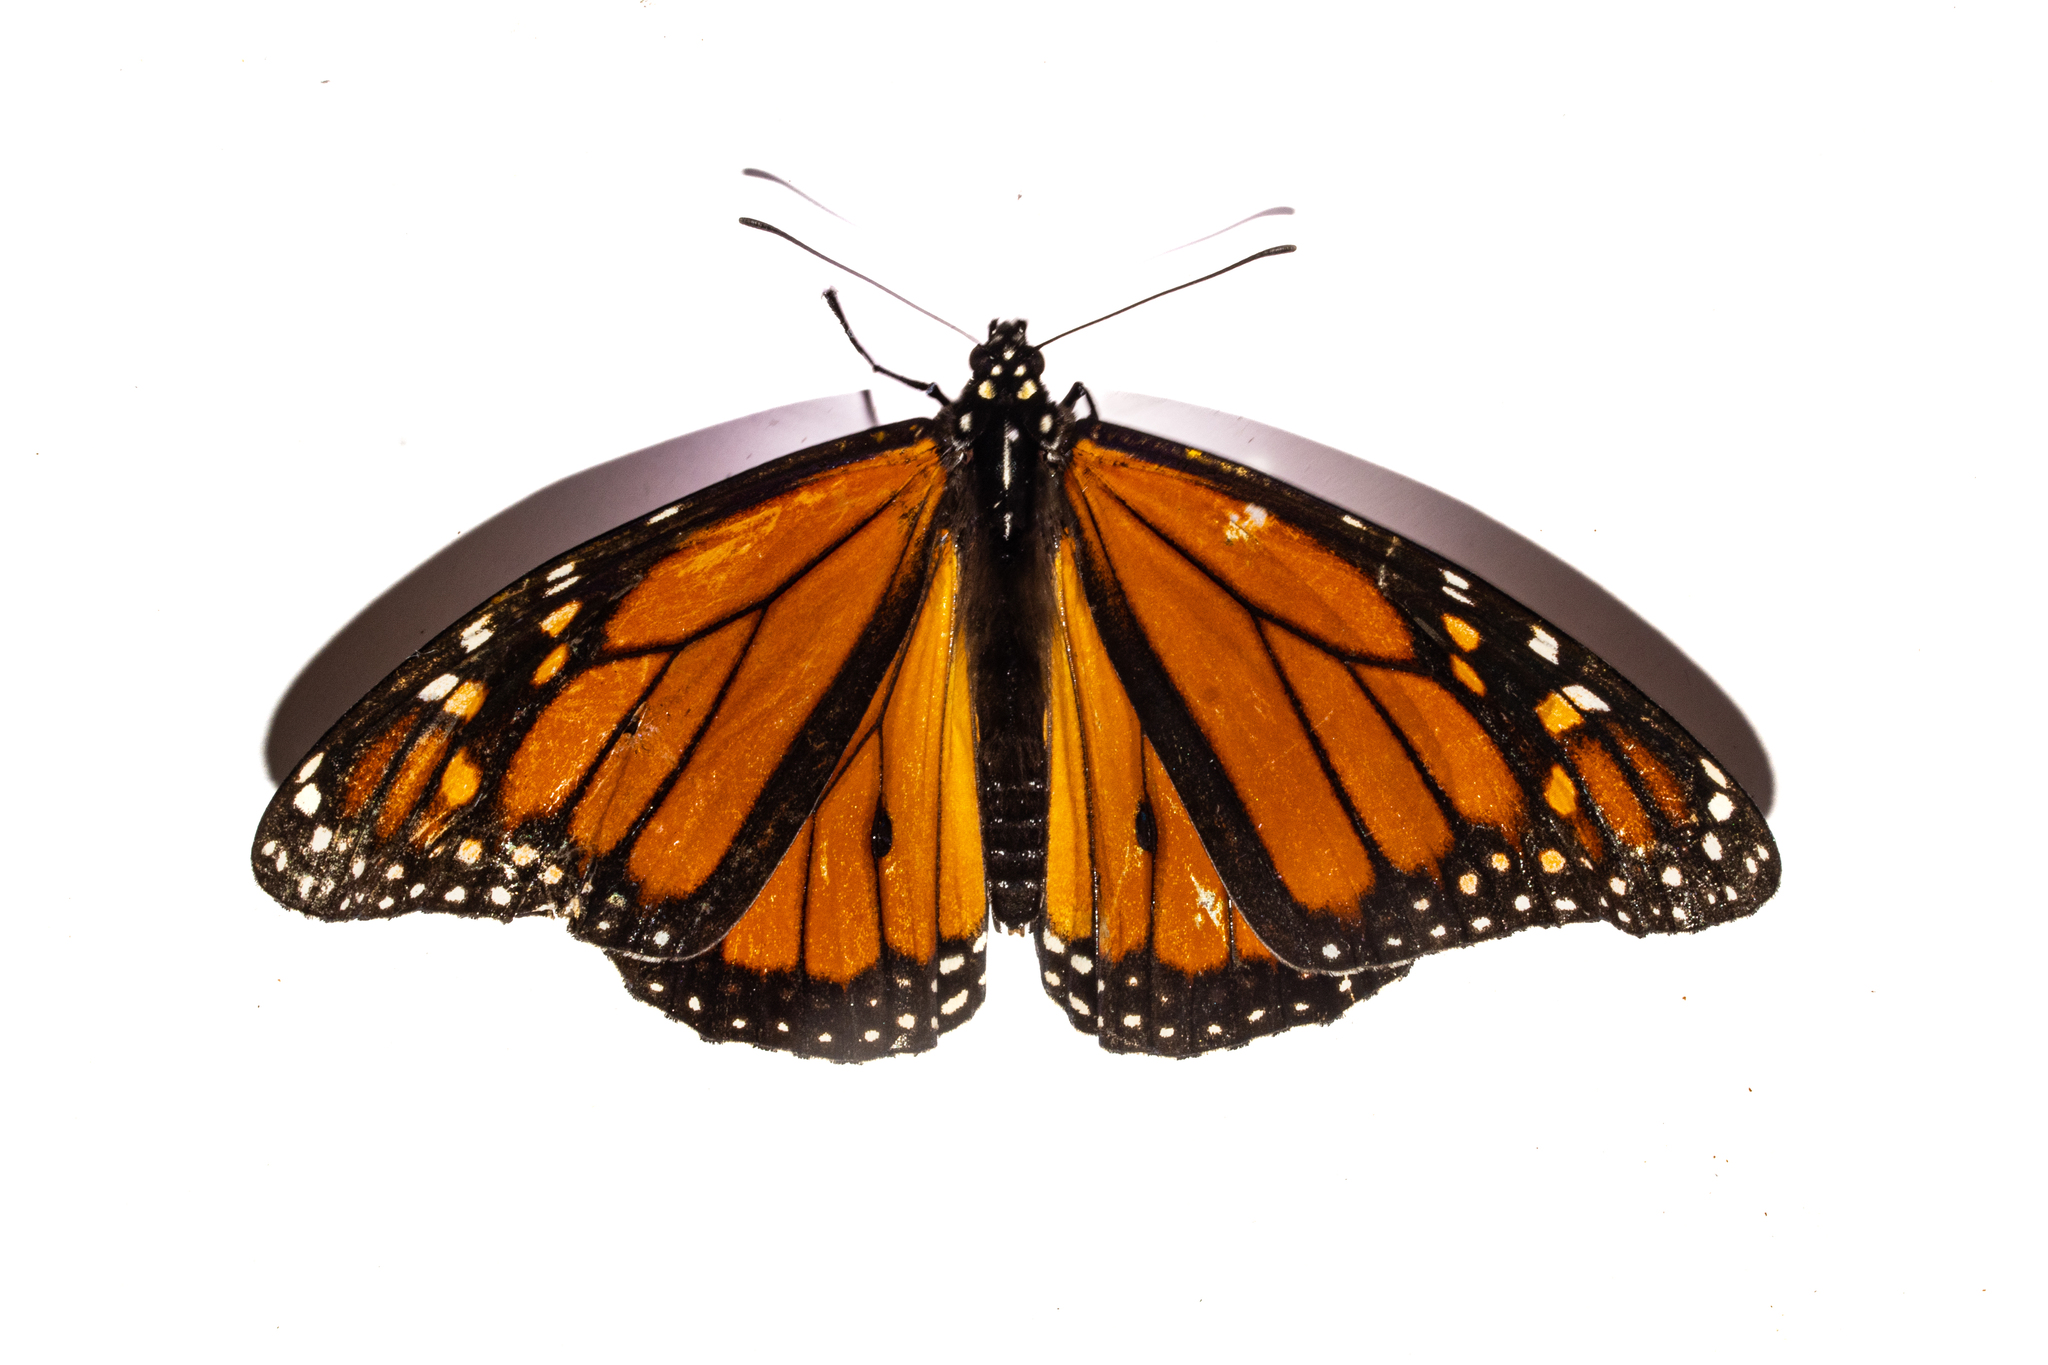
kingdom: Animalia
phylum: Arthropoda
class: Insecta
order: Lepidoptera
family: Nymphalidae
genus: Danaus
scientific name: Danaus plexippus
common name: Monarch
